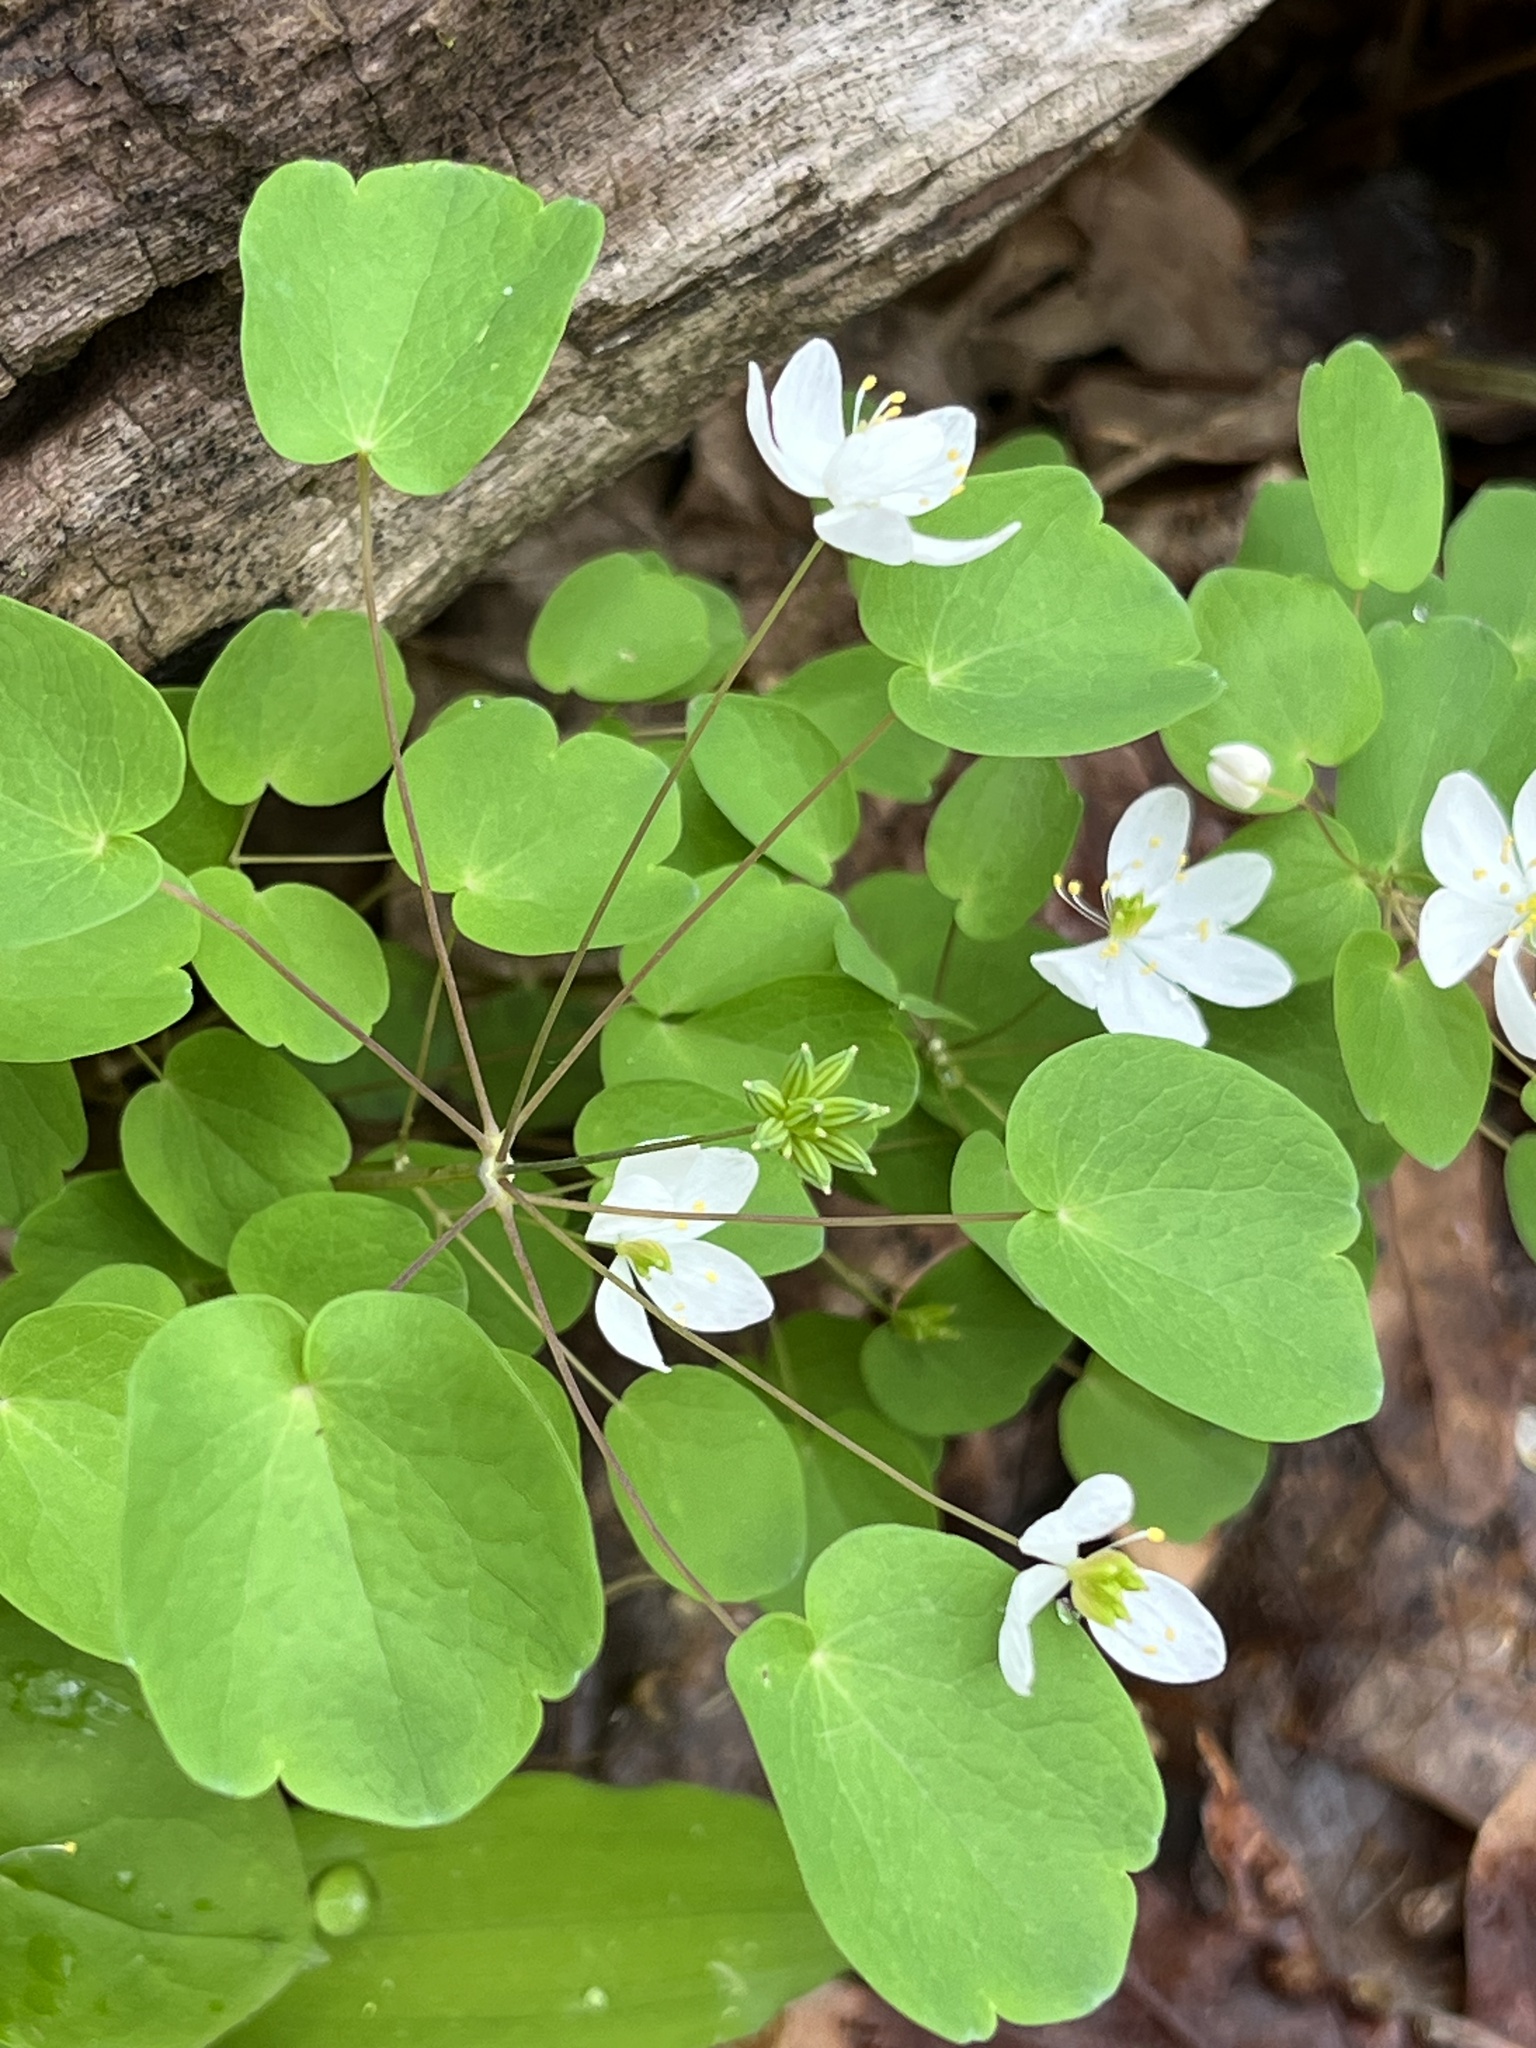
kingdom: Plantae
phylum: Tracheophyta
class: Magnoliopsida
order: Ranunculales
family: Ranunculaceae
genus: Thalictrum
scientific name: Thalictrum thalictroides
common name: Rue-anemone
